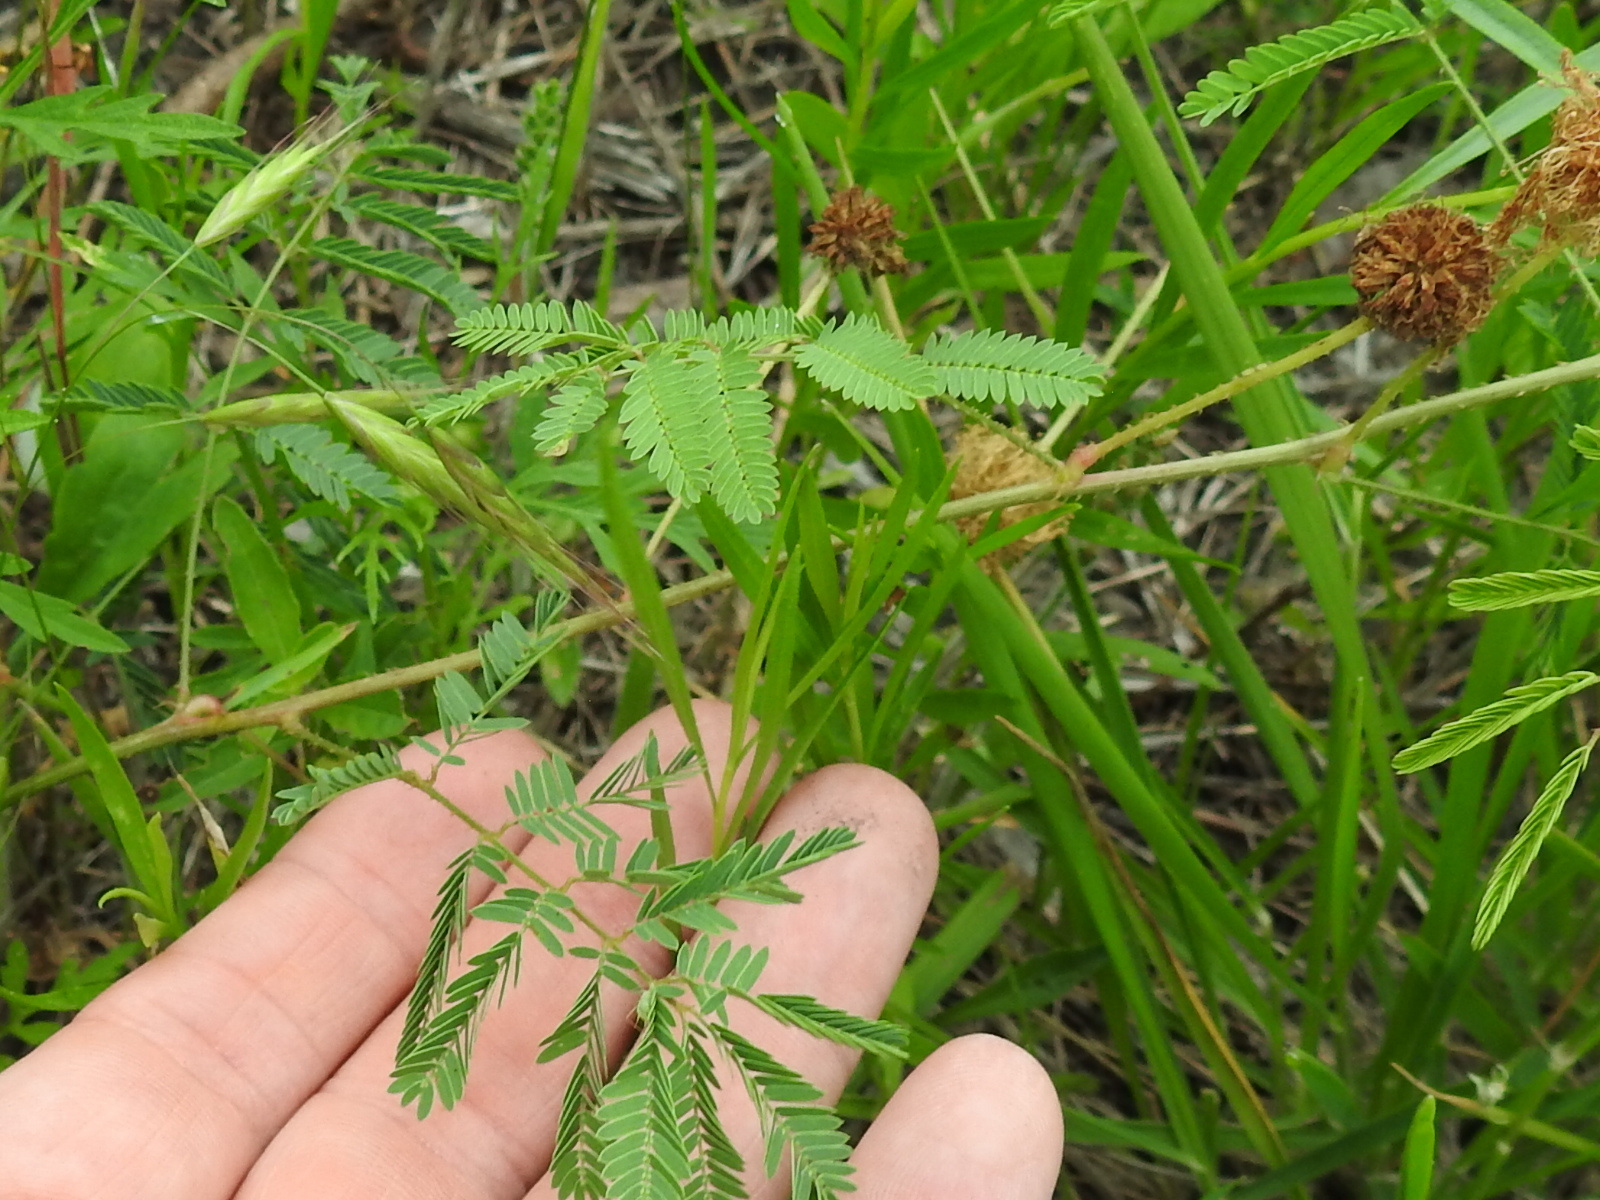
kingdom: Plantae
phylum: Tracheophyta
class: Magnoliopsida
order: Fabales
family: Fabaceae
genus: Mimosa
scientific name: Mimosa quadrivalvis
